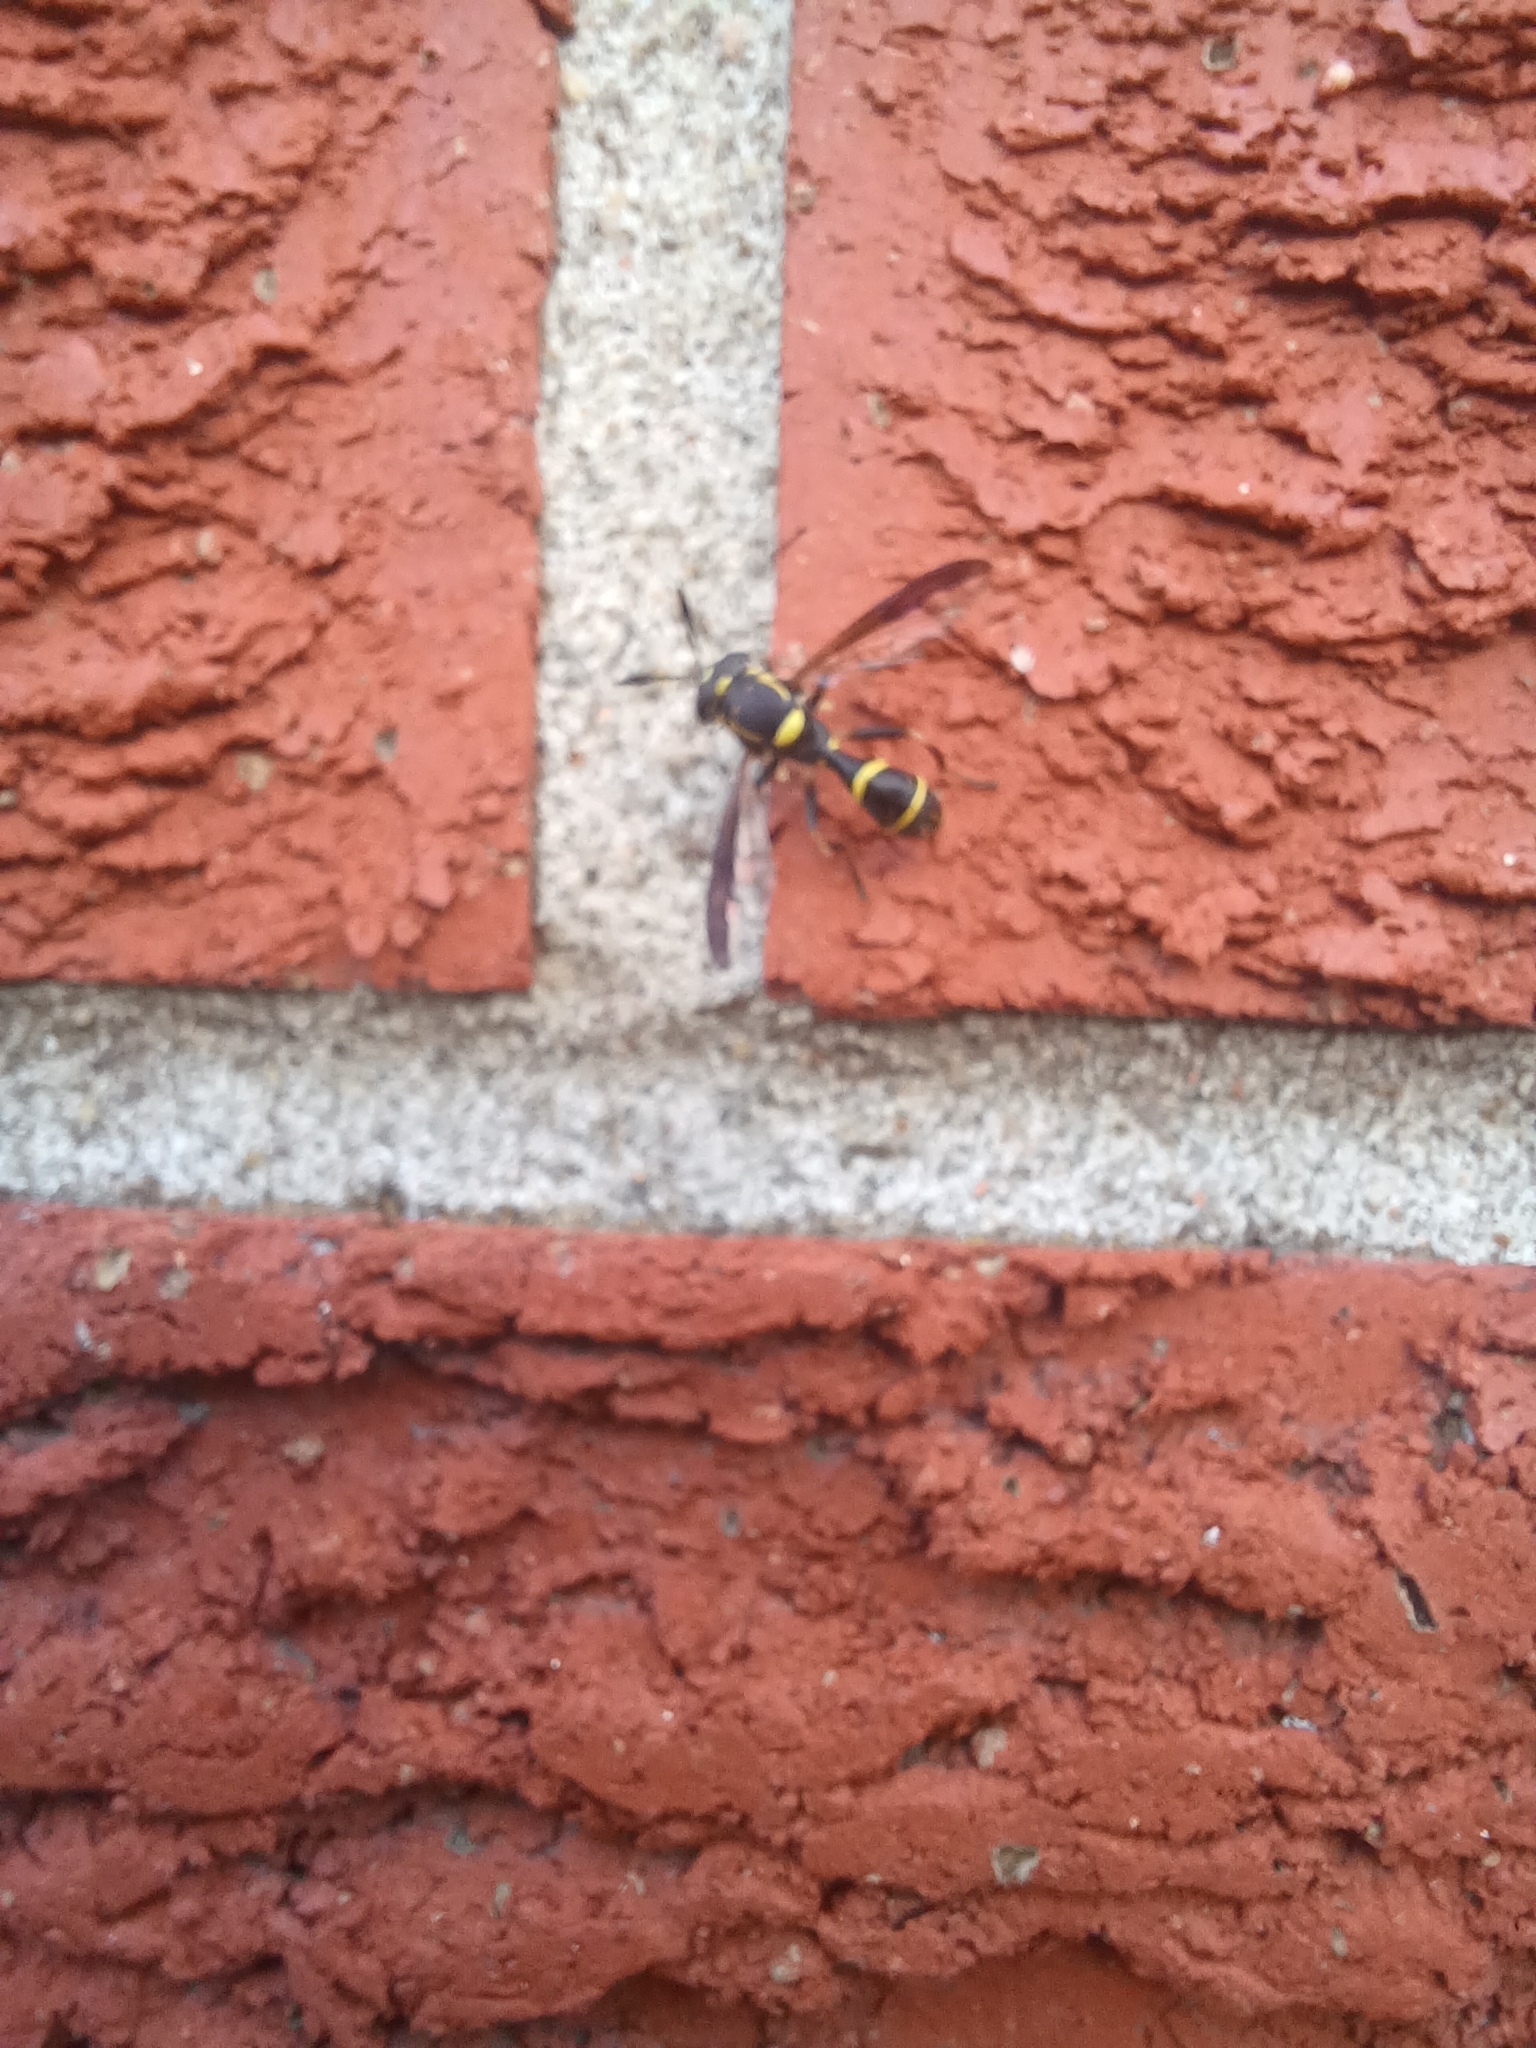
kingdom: Animalia
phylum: Arthropoda
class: Insecta
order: Diptera
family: Syrphidae
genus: Sphiximorpha
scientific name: Sphiximorpha willistoni
